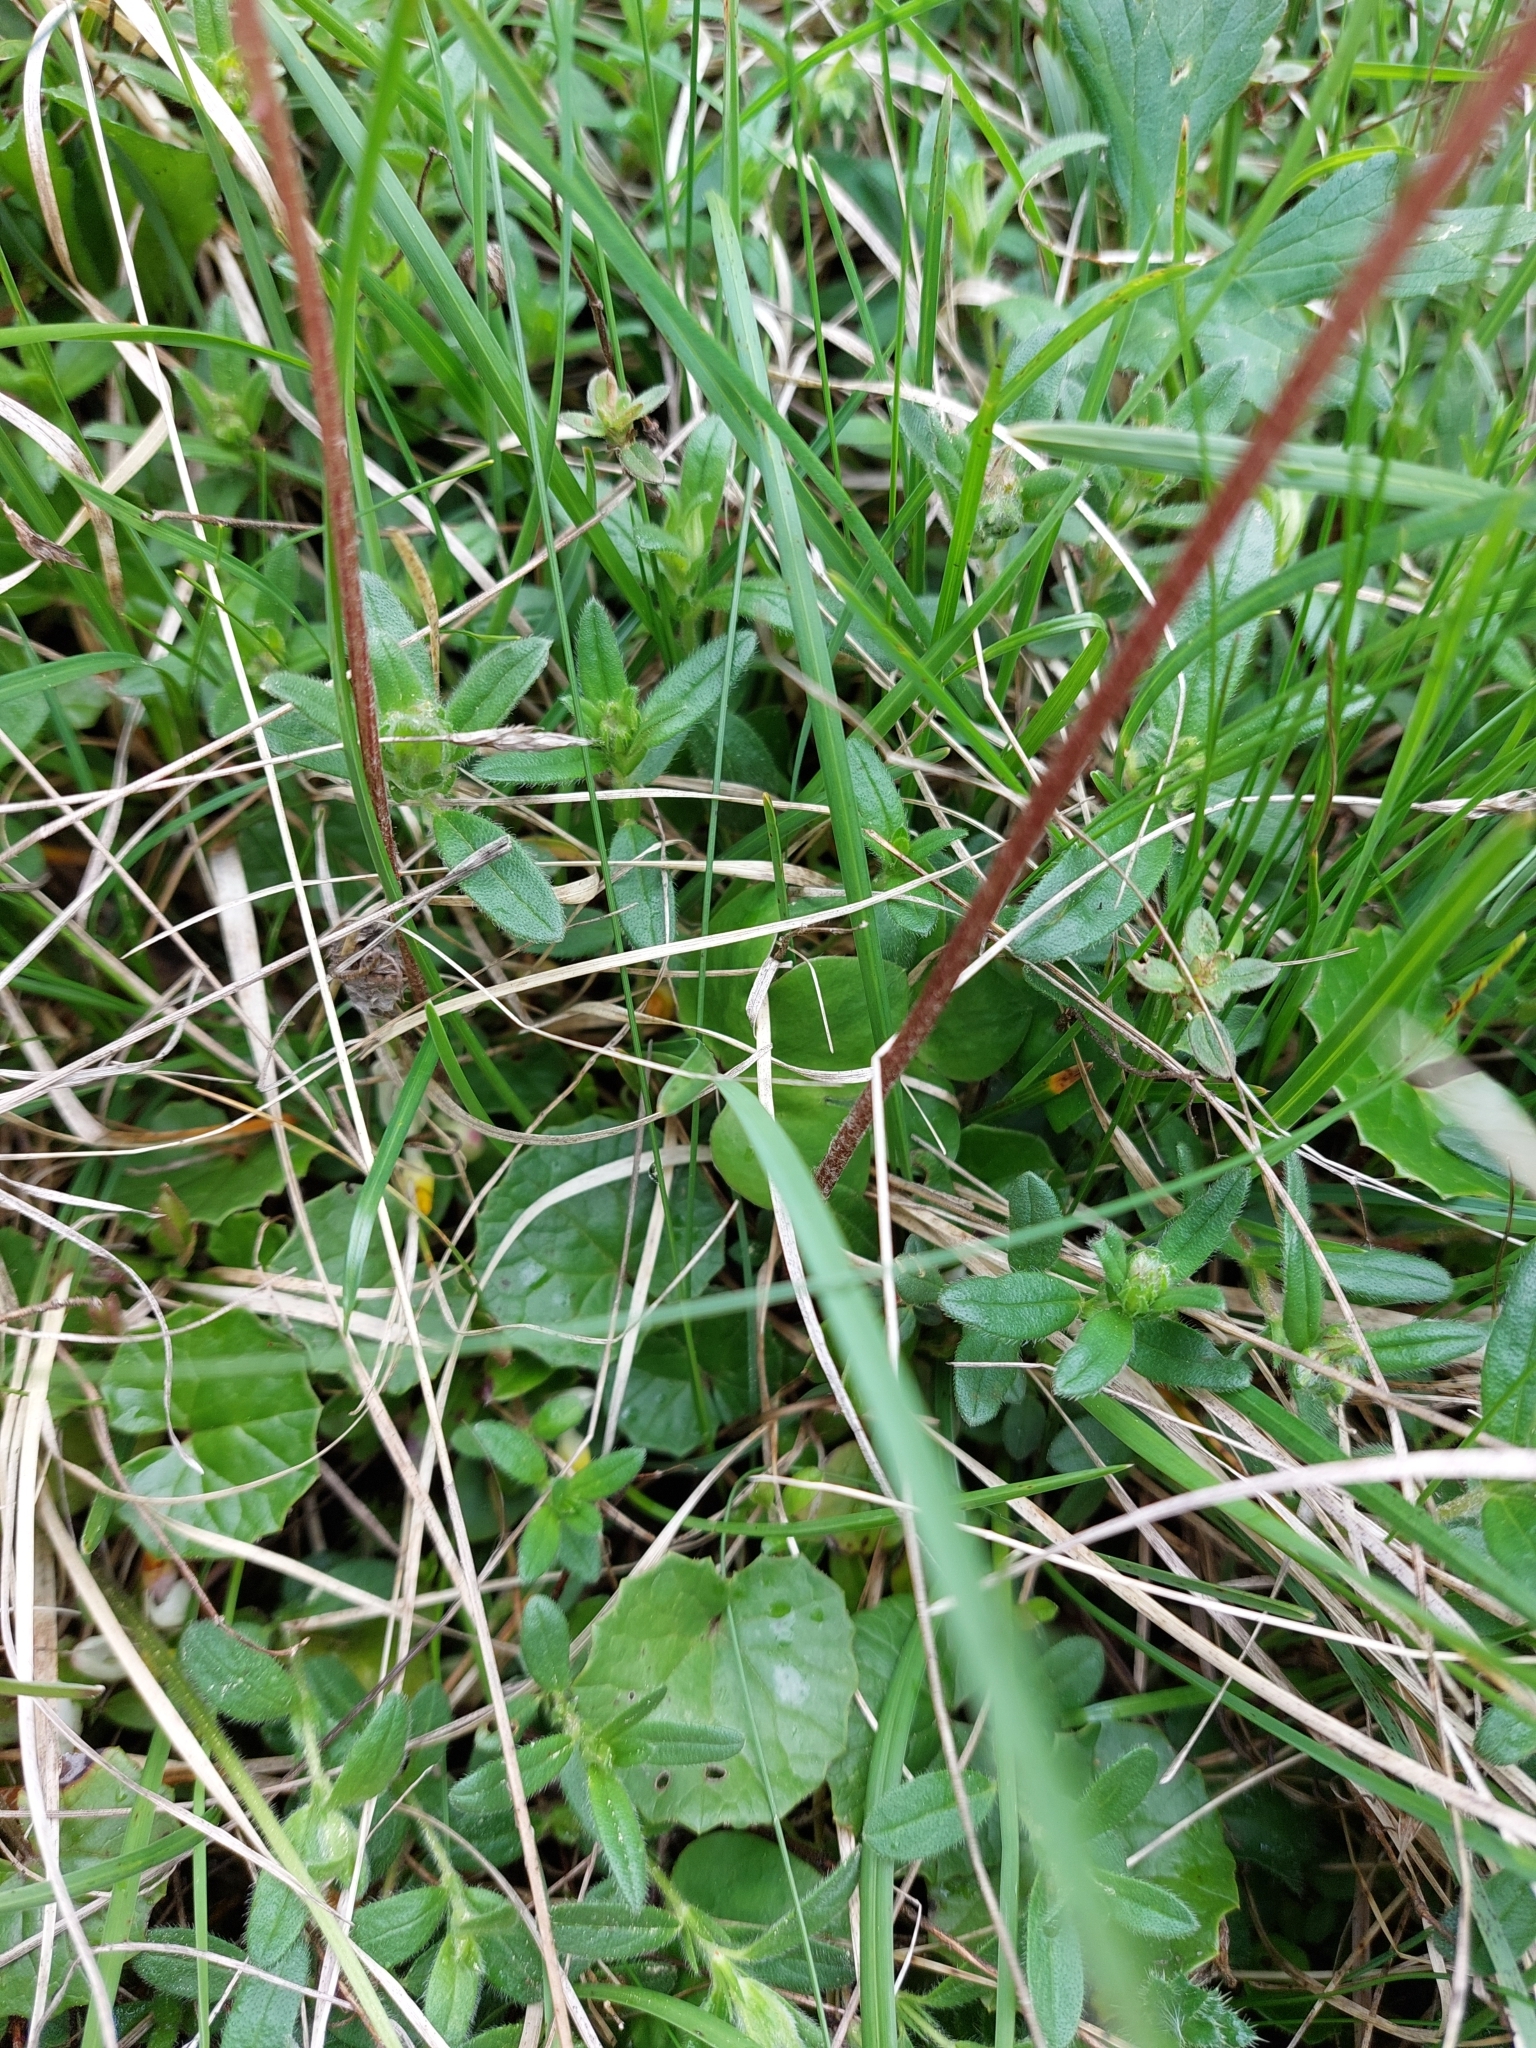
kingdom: Plantae
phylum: Tracheophyta
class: Magnoliopsida
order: Asterales
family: Asteraceae
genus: Homogyne
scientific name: Homogyne alpina
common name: Purple colt's-foot
